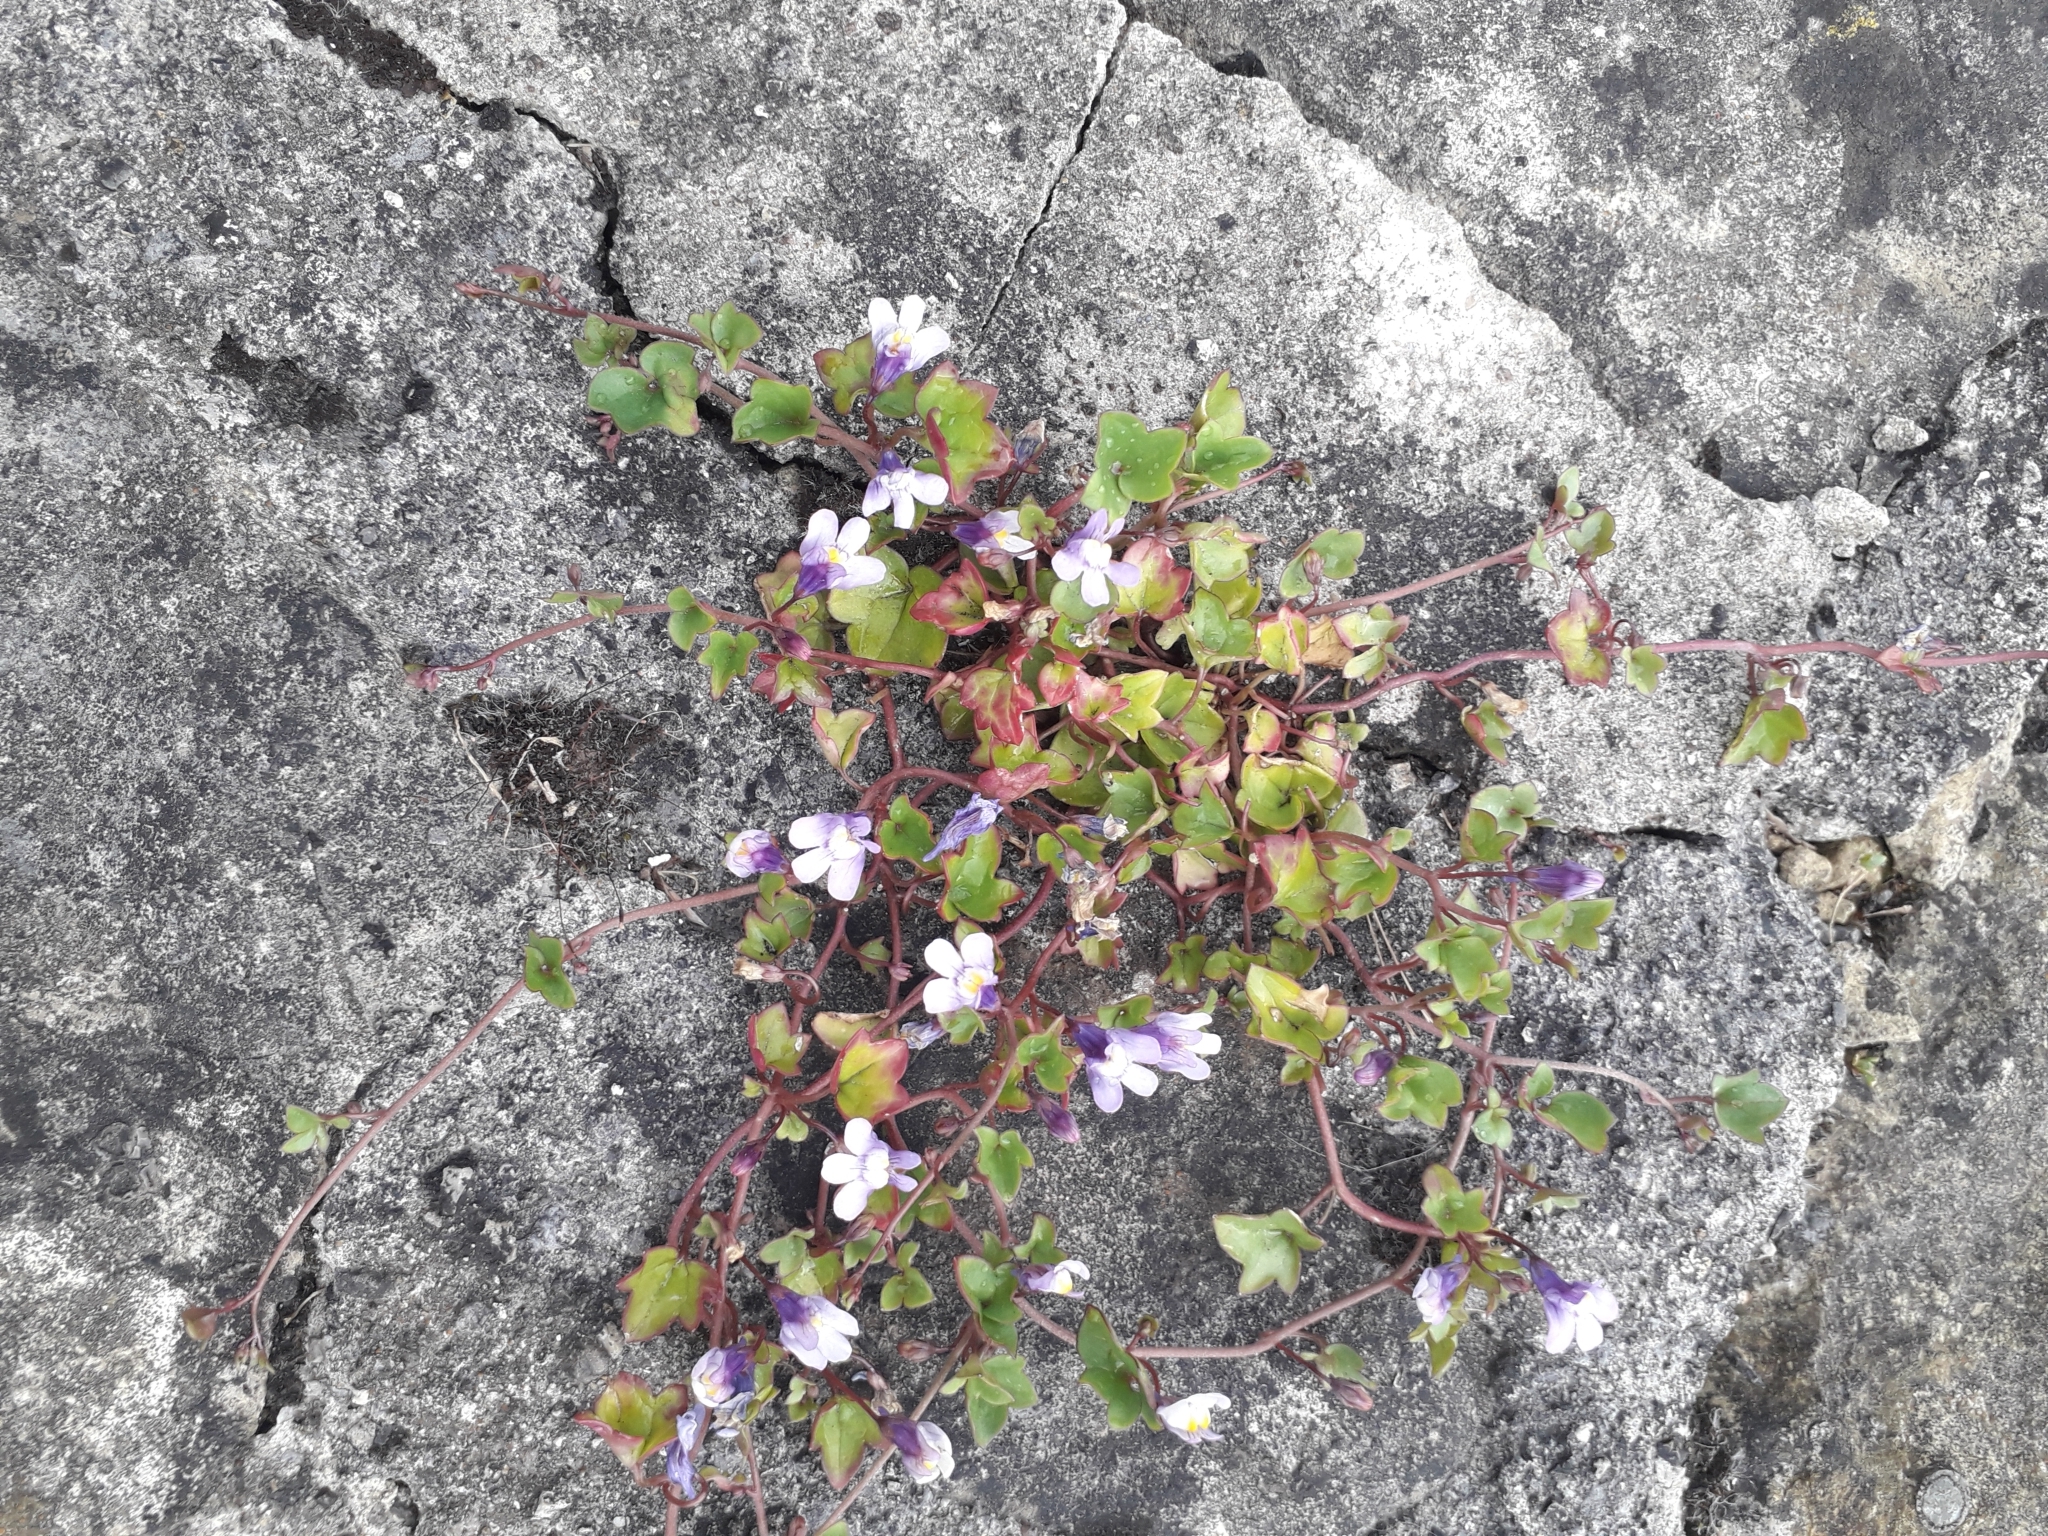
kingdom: Plantae
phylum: Tracheophyta
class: Magnoliopsida
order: Lamiales
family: Plantaginaceae
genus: Cymbalaria
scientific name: Cymbalaria muralis
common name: Ivy-leaved toadflax
